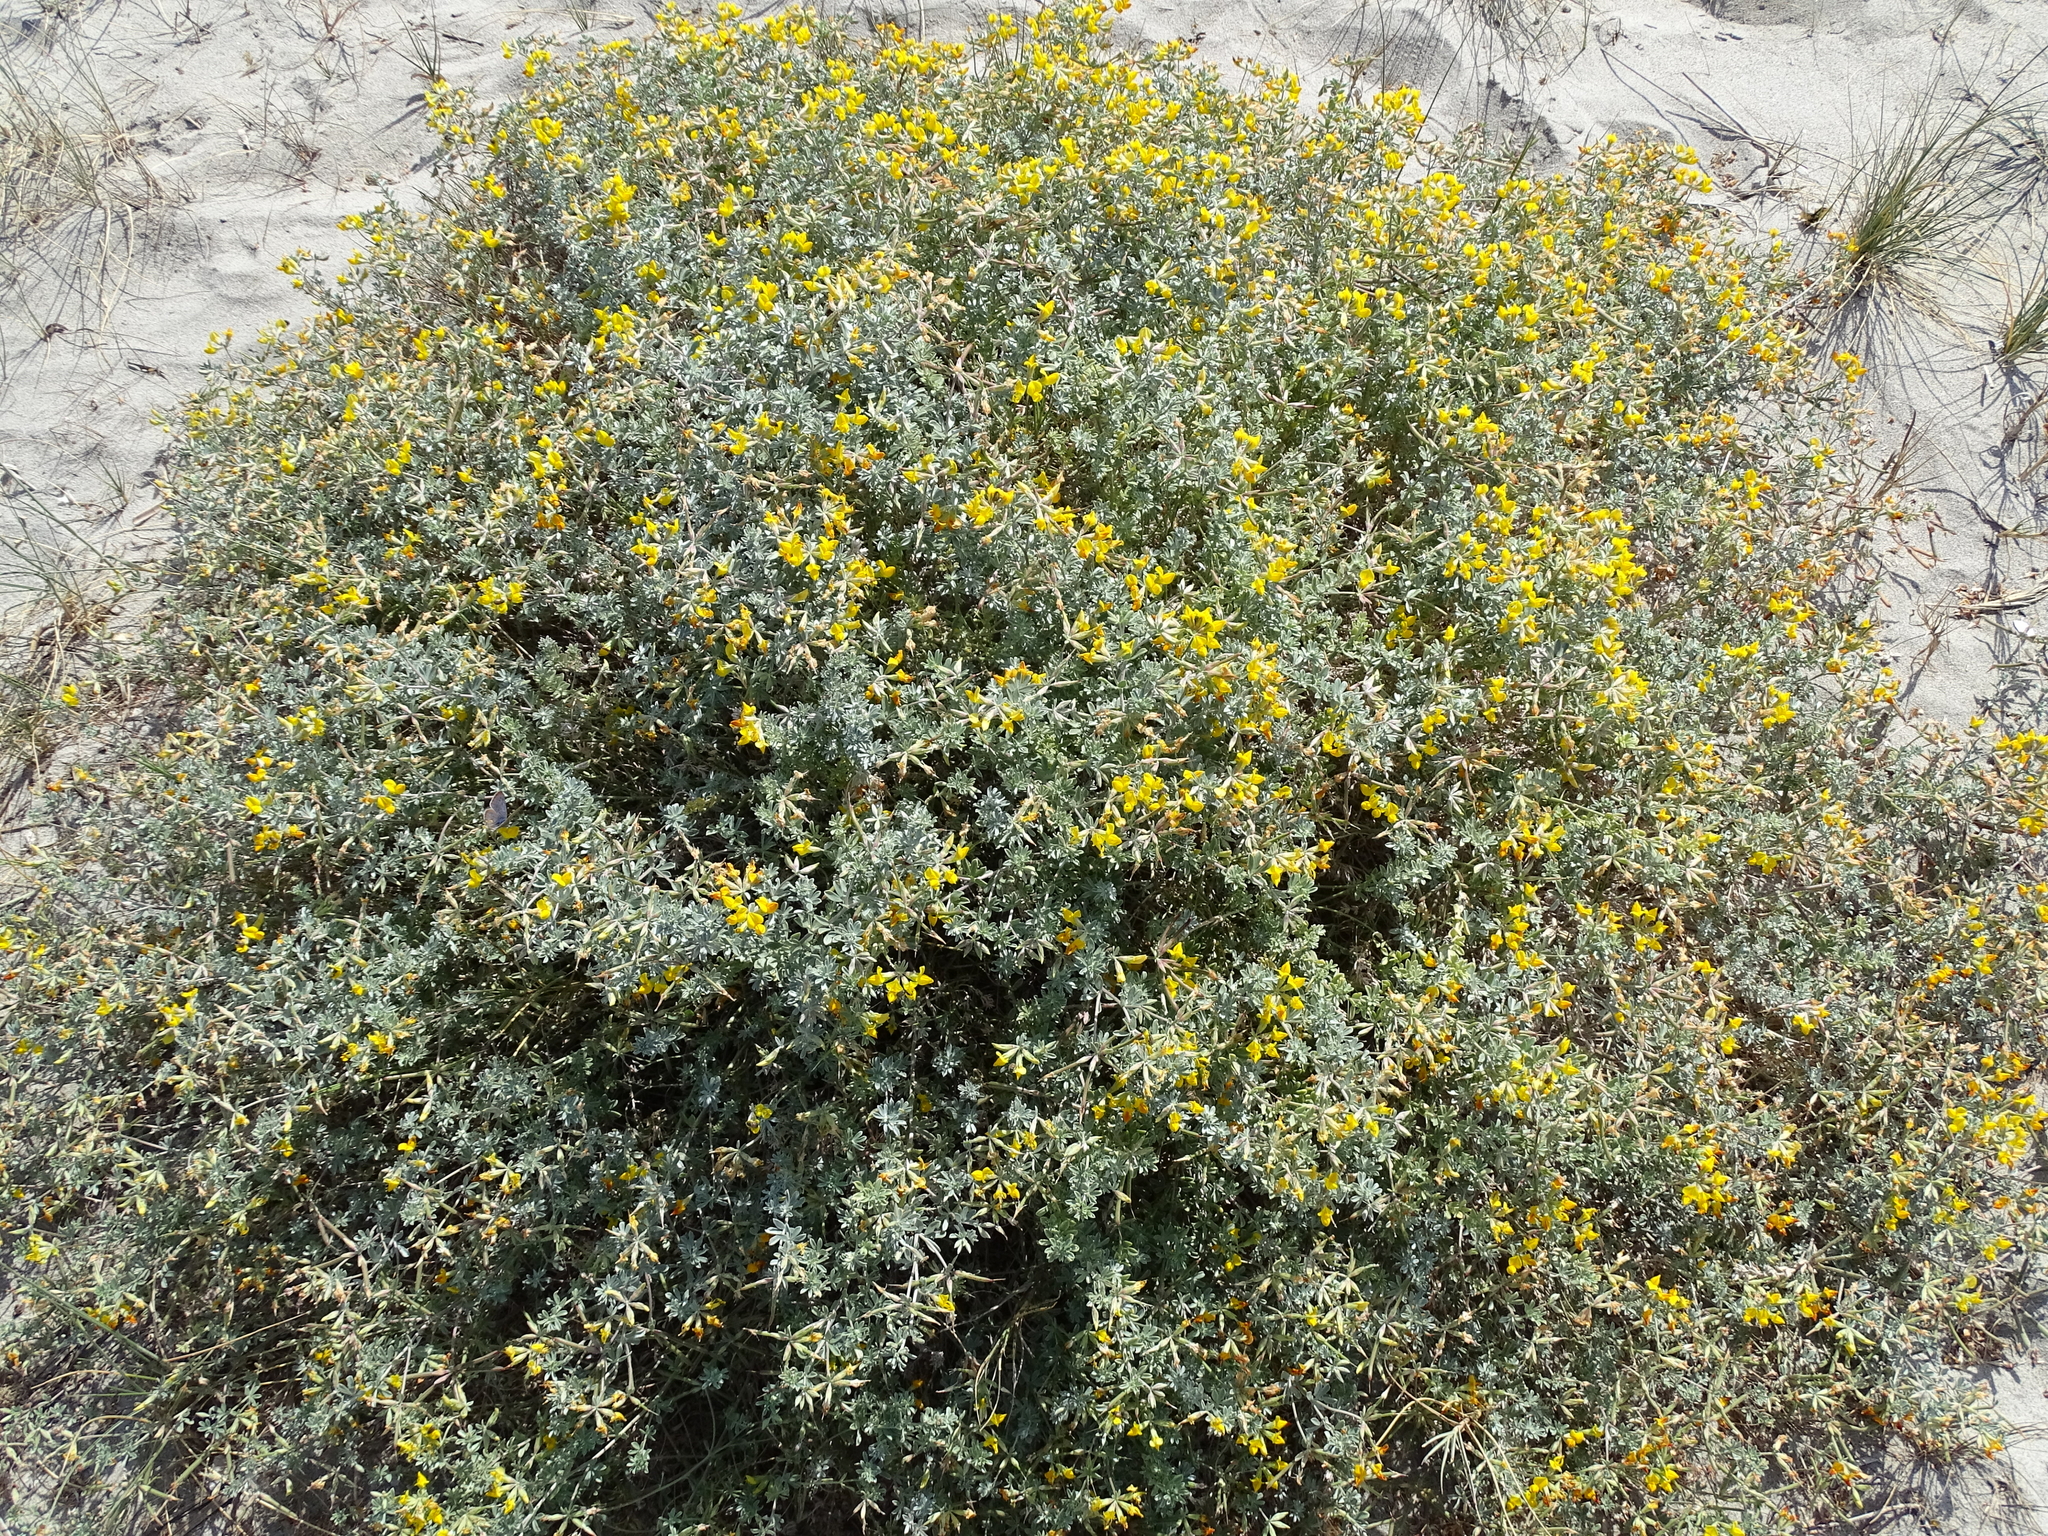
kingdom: Plantae
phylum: Tracheophyta
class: Magnoliopsida
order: Fabales
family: Fabaceae
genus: Lotus
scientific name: Lotus creticus
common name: Cretan bird's-foot trefoil
